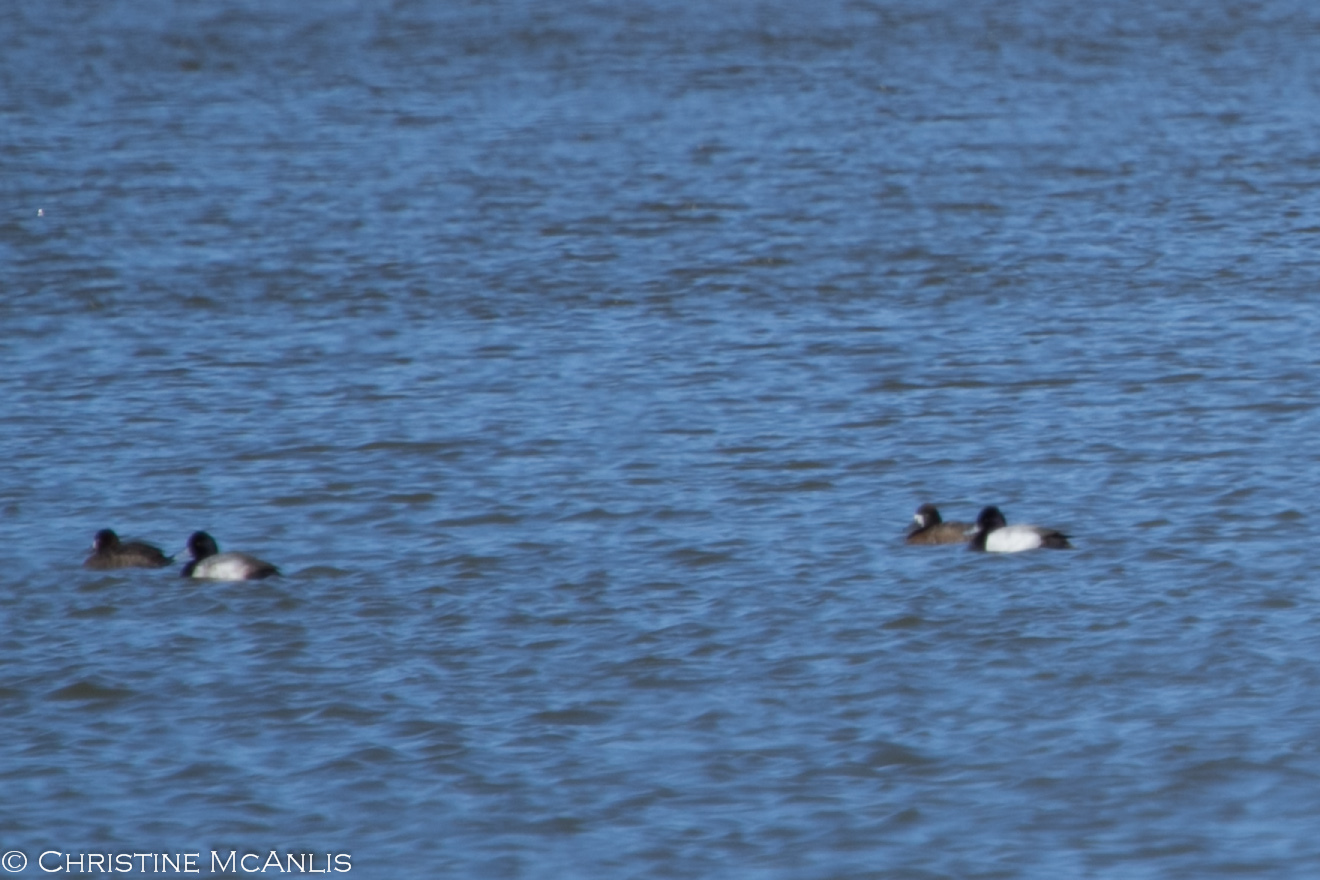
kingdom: Animalia
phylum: Chordata
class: Aves
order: Anseriformes
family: Anatidae
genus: Aythya
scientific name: Aythya affinis
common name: Lesser scaup
